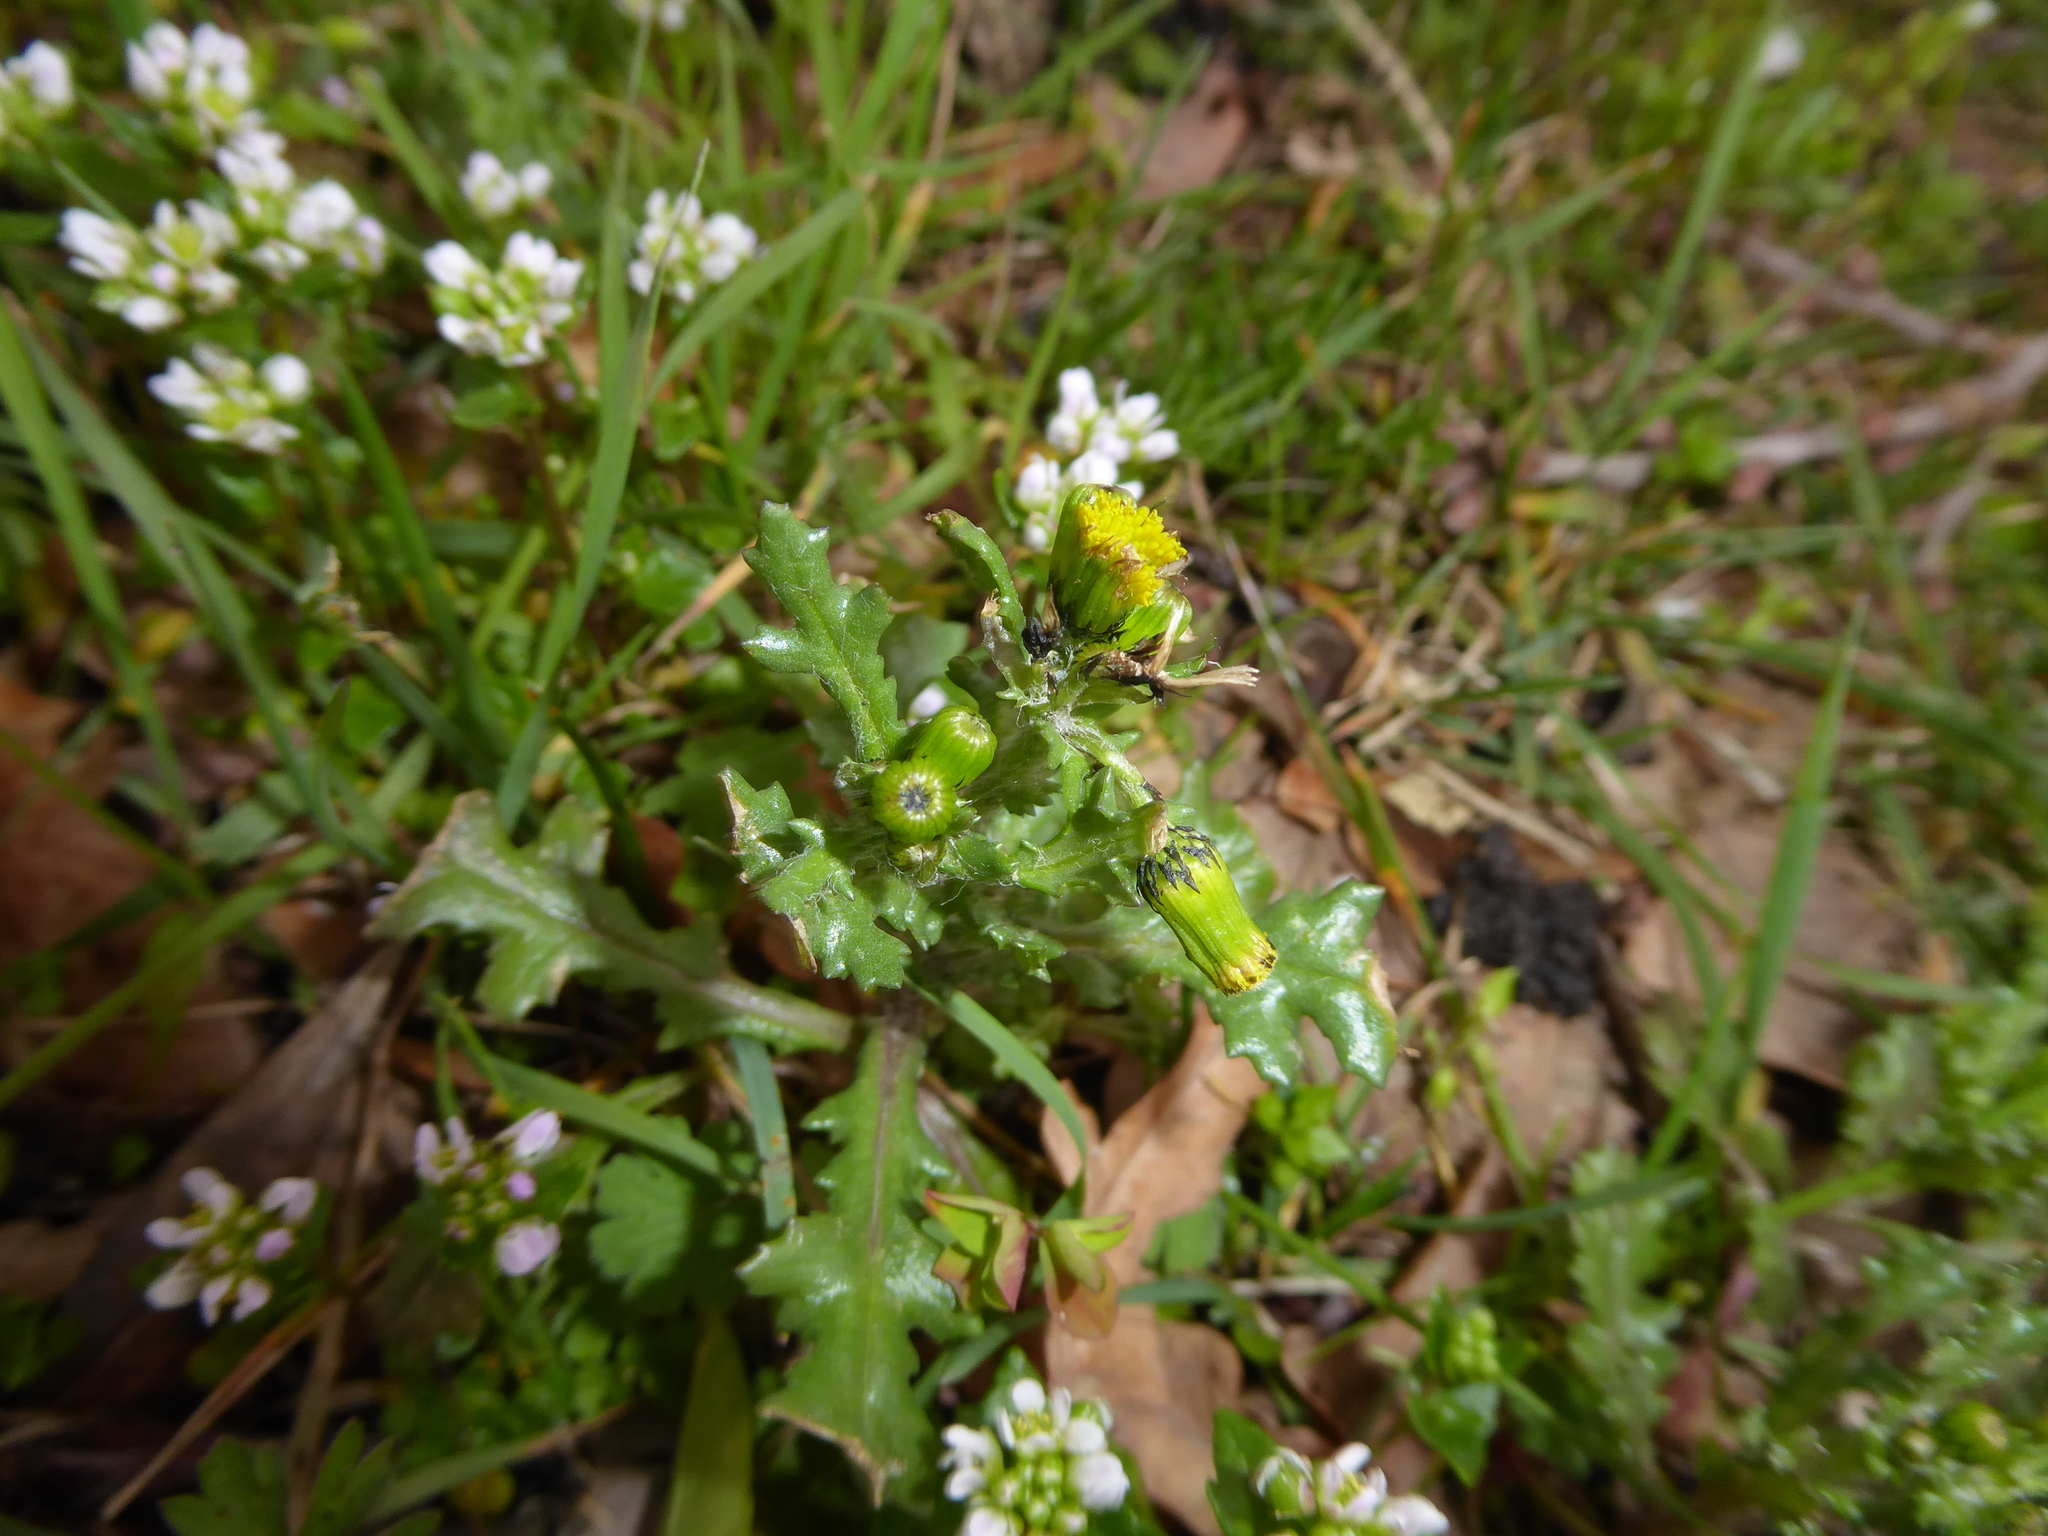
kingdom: Plantae
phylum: Tracheophyta
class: Magnoliopsida
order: Asterales
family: Asteraceae
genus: Senecio
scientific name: Senecio vulgaris
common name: Old-man-in-the-spring
